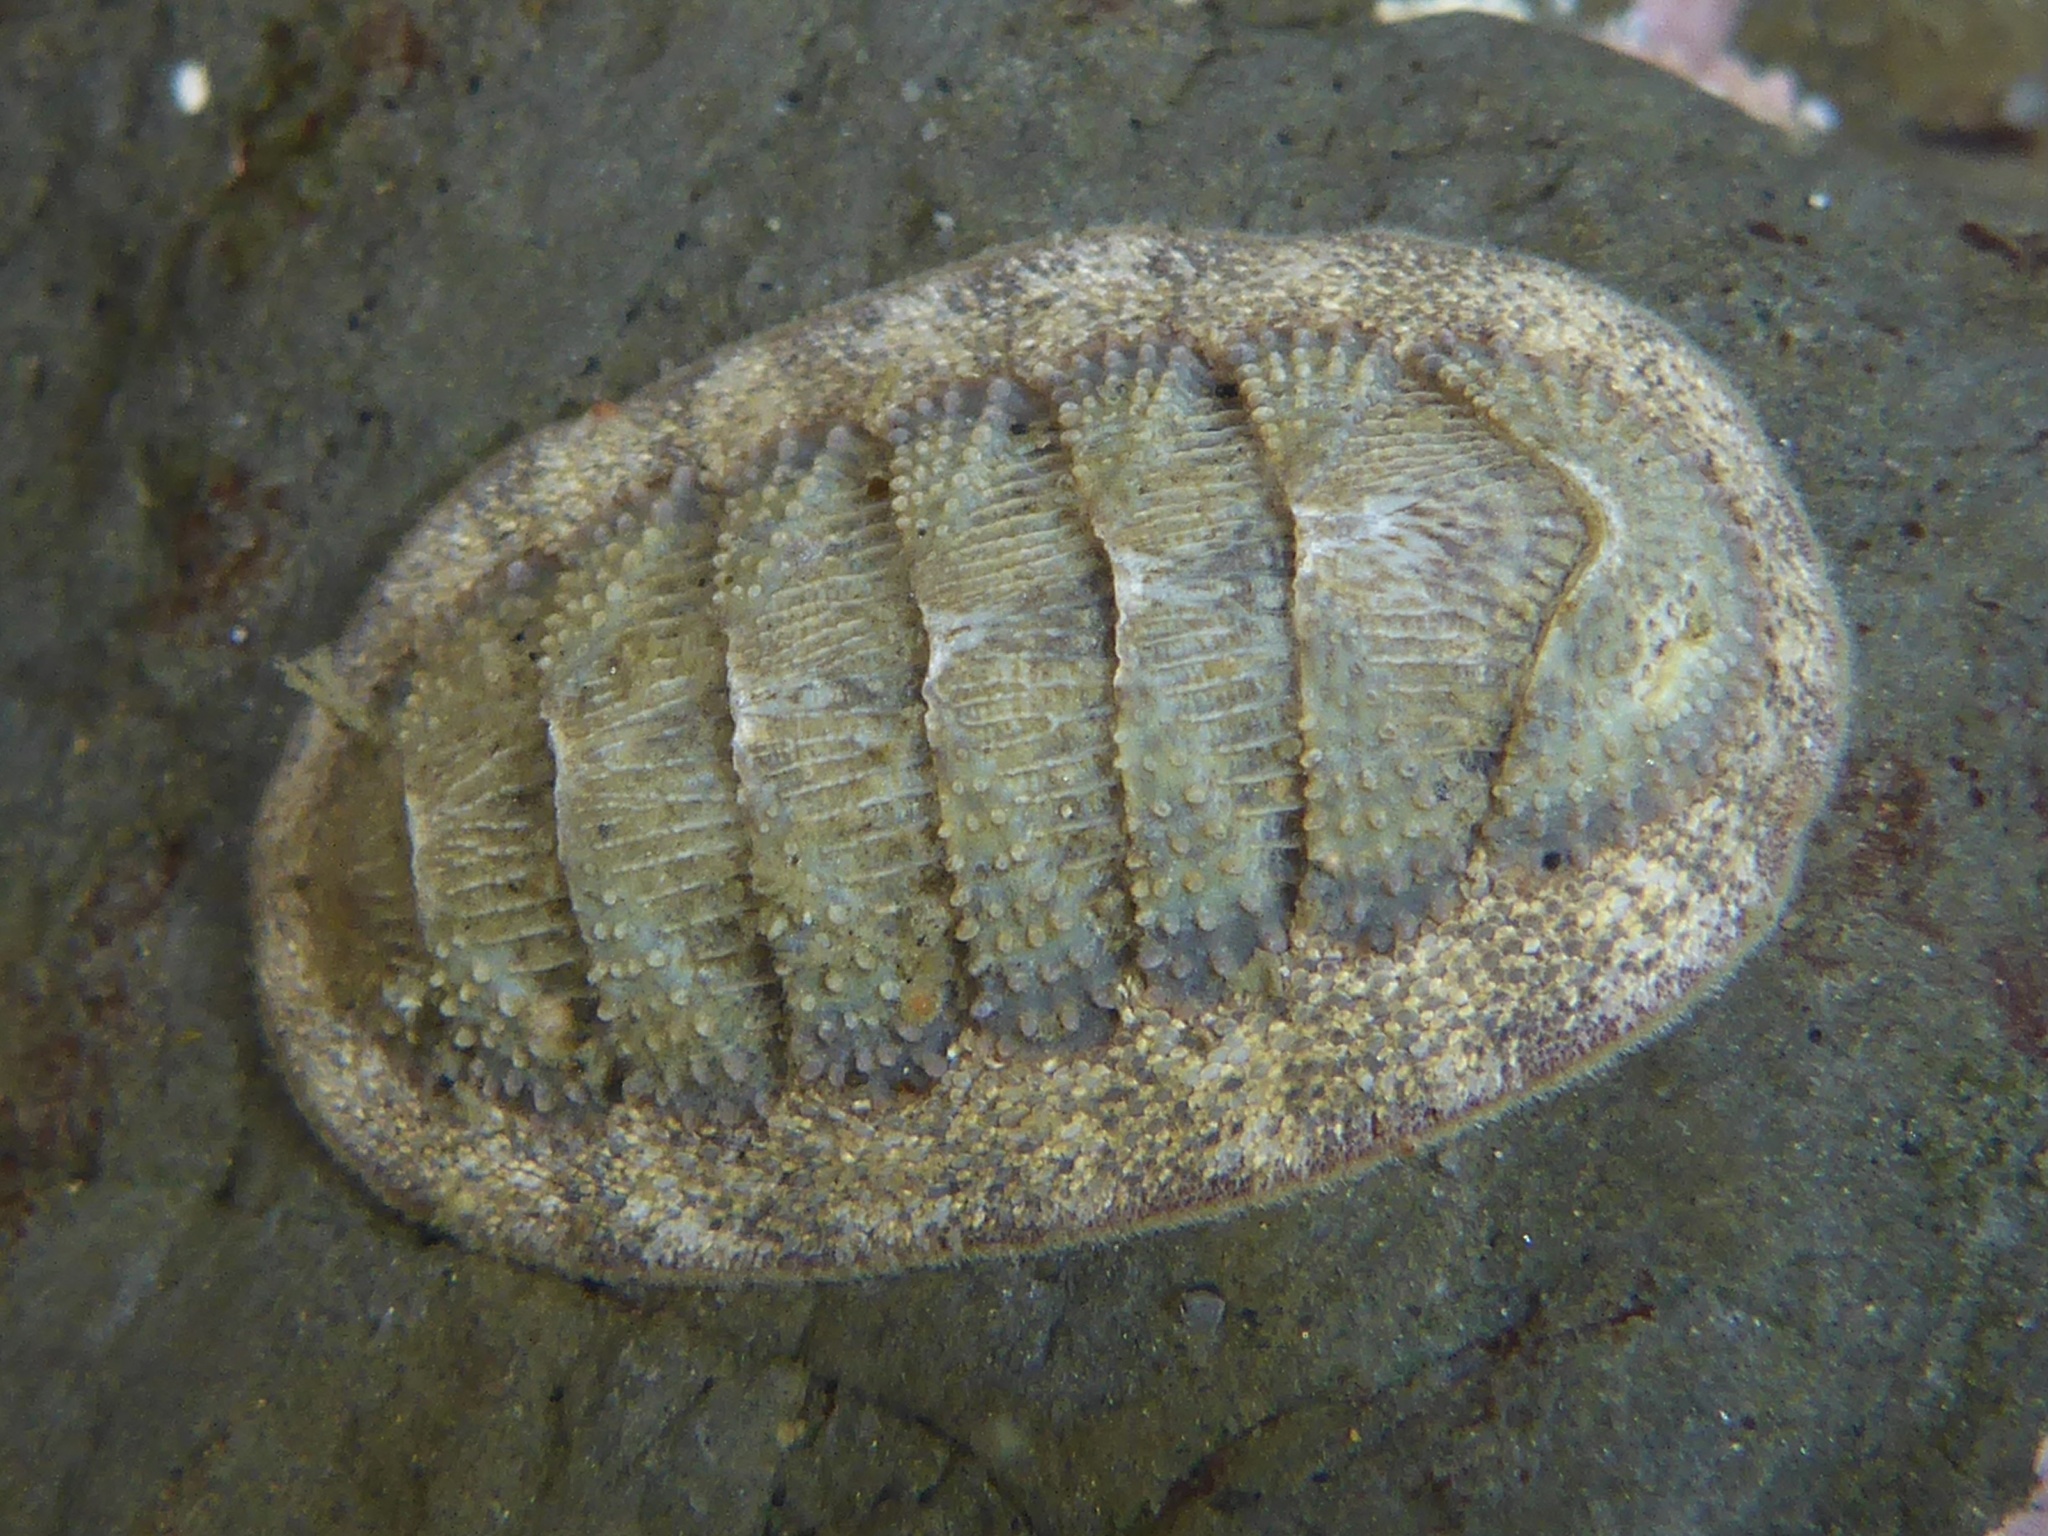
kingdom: Animalia
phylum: Mollusca
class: Polyplacophora
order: Chitonida
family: Ischnochitonidae
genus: Lepidozona
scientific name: Lepidozona cooperi
